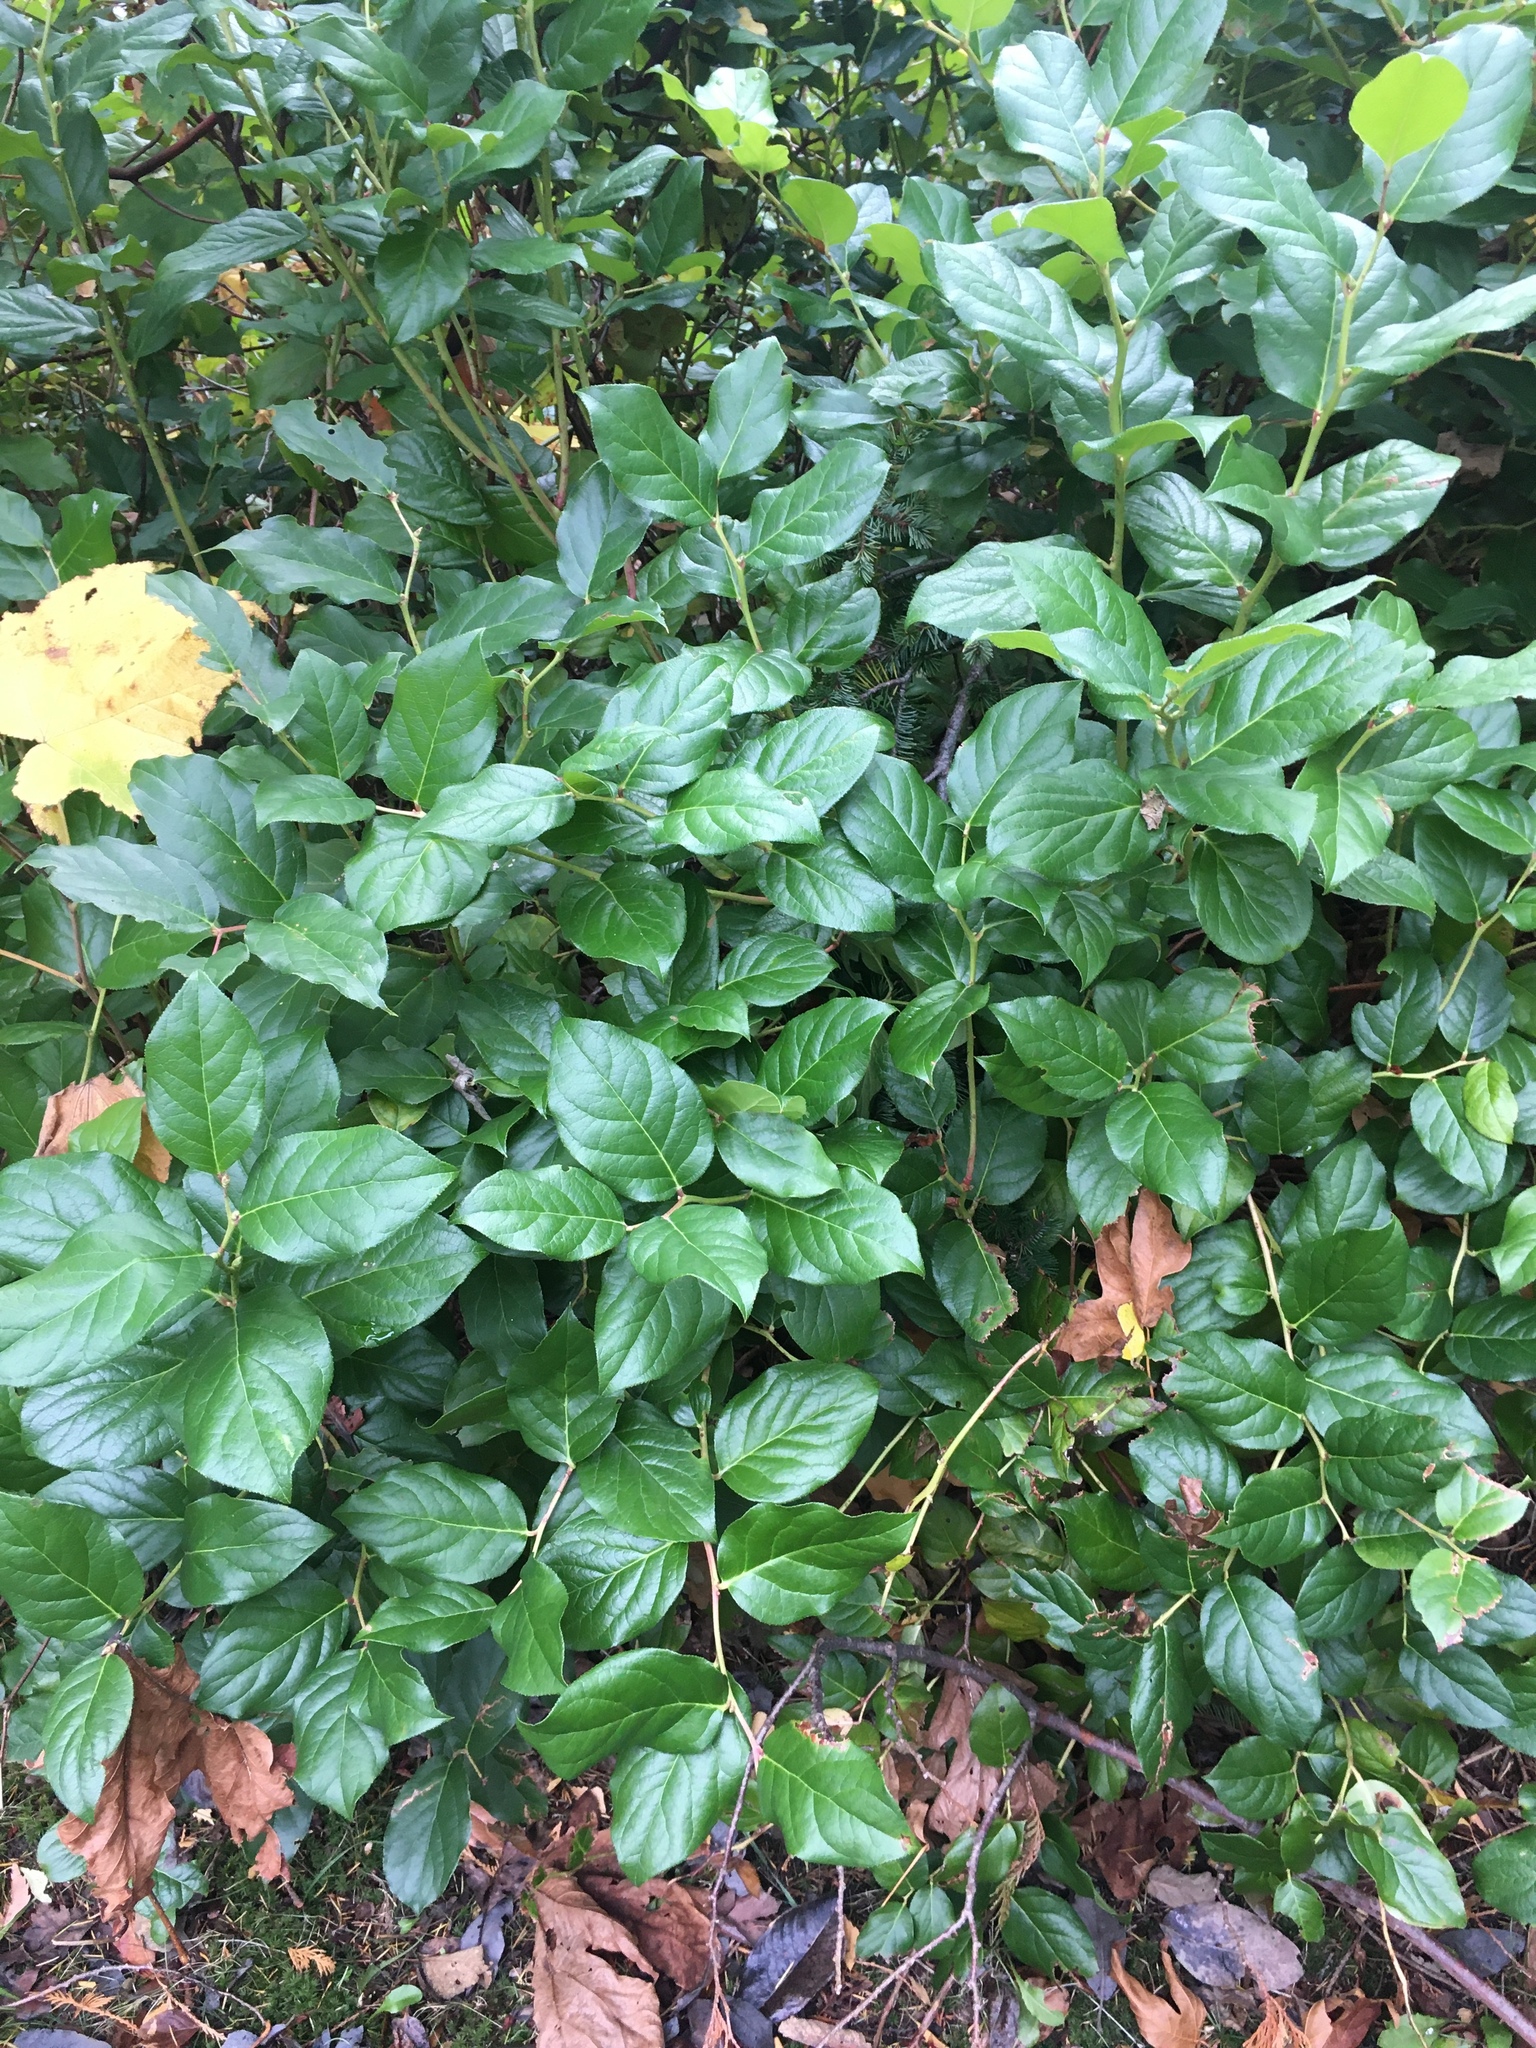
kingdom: Plantae
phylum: Tracheophyta
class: Magnoliopsida
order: Ericales
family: Ericaceae
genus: Gaultheria
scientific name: Gaultheria shallon
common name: Shallon
